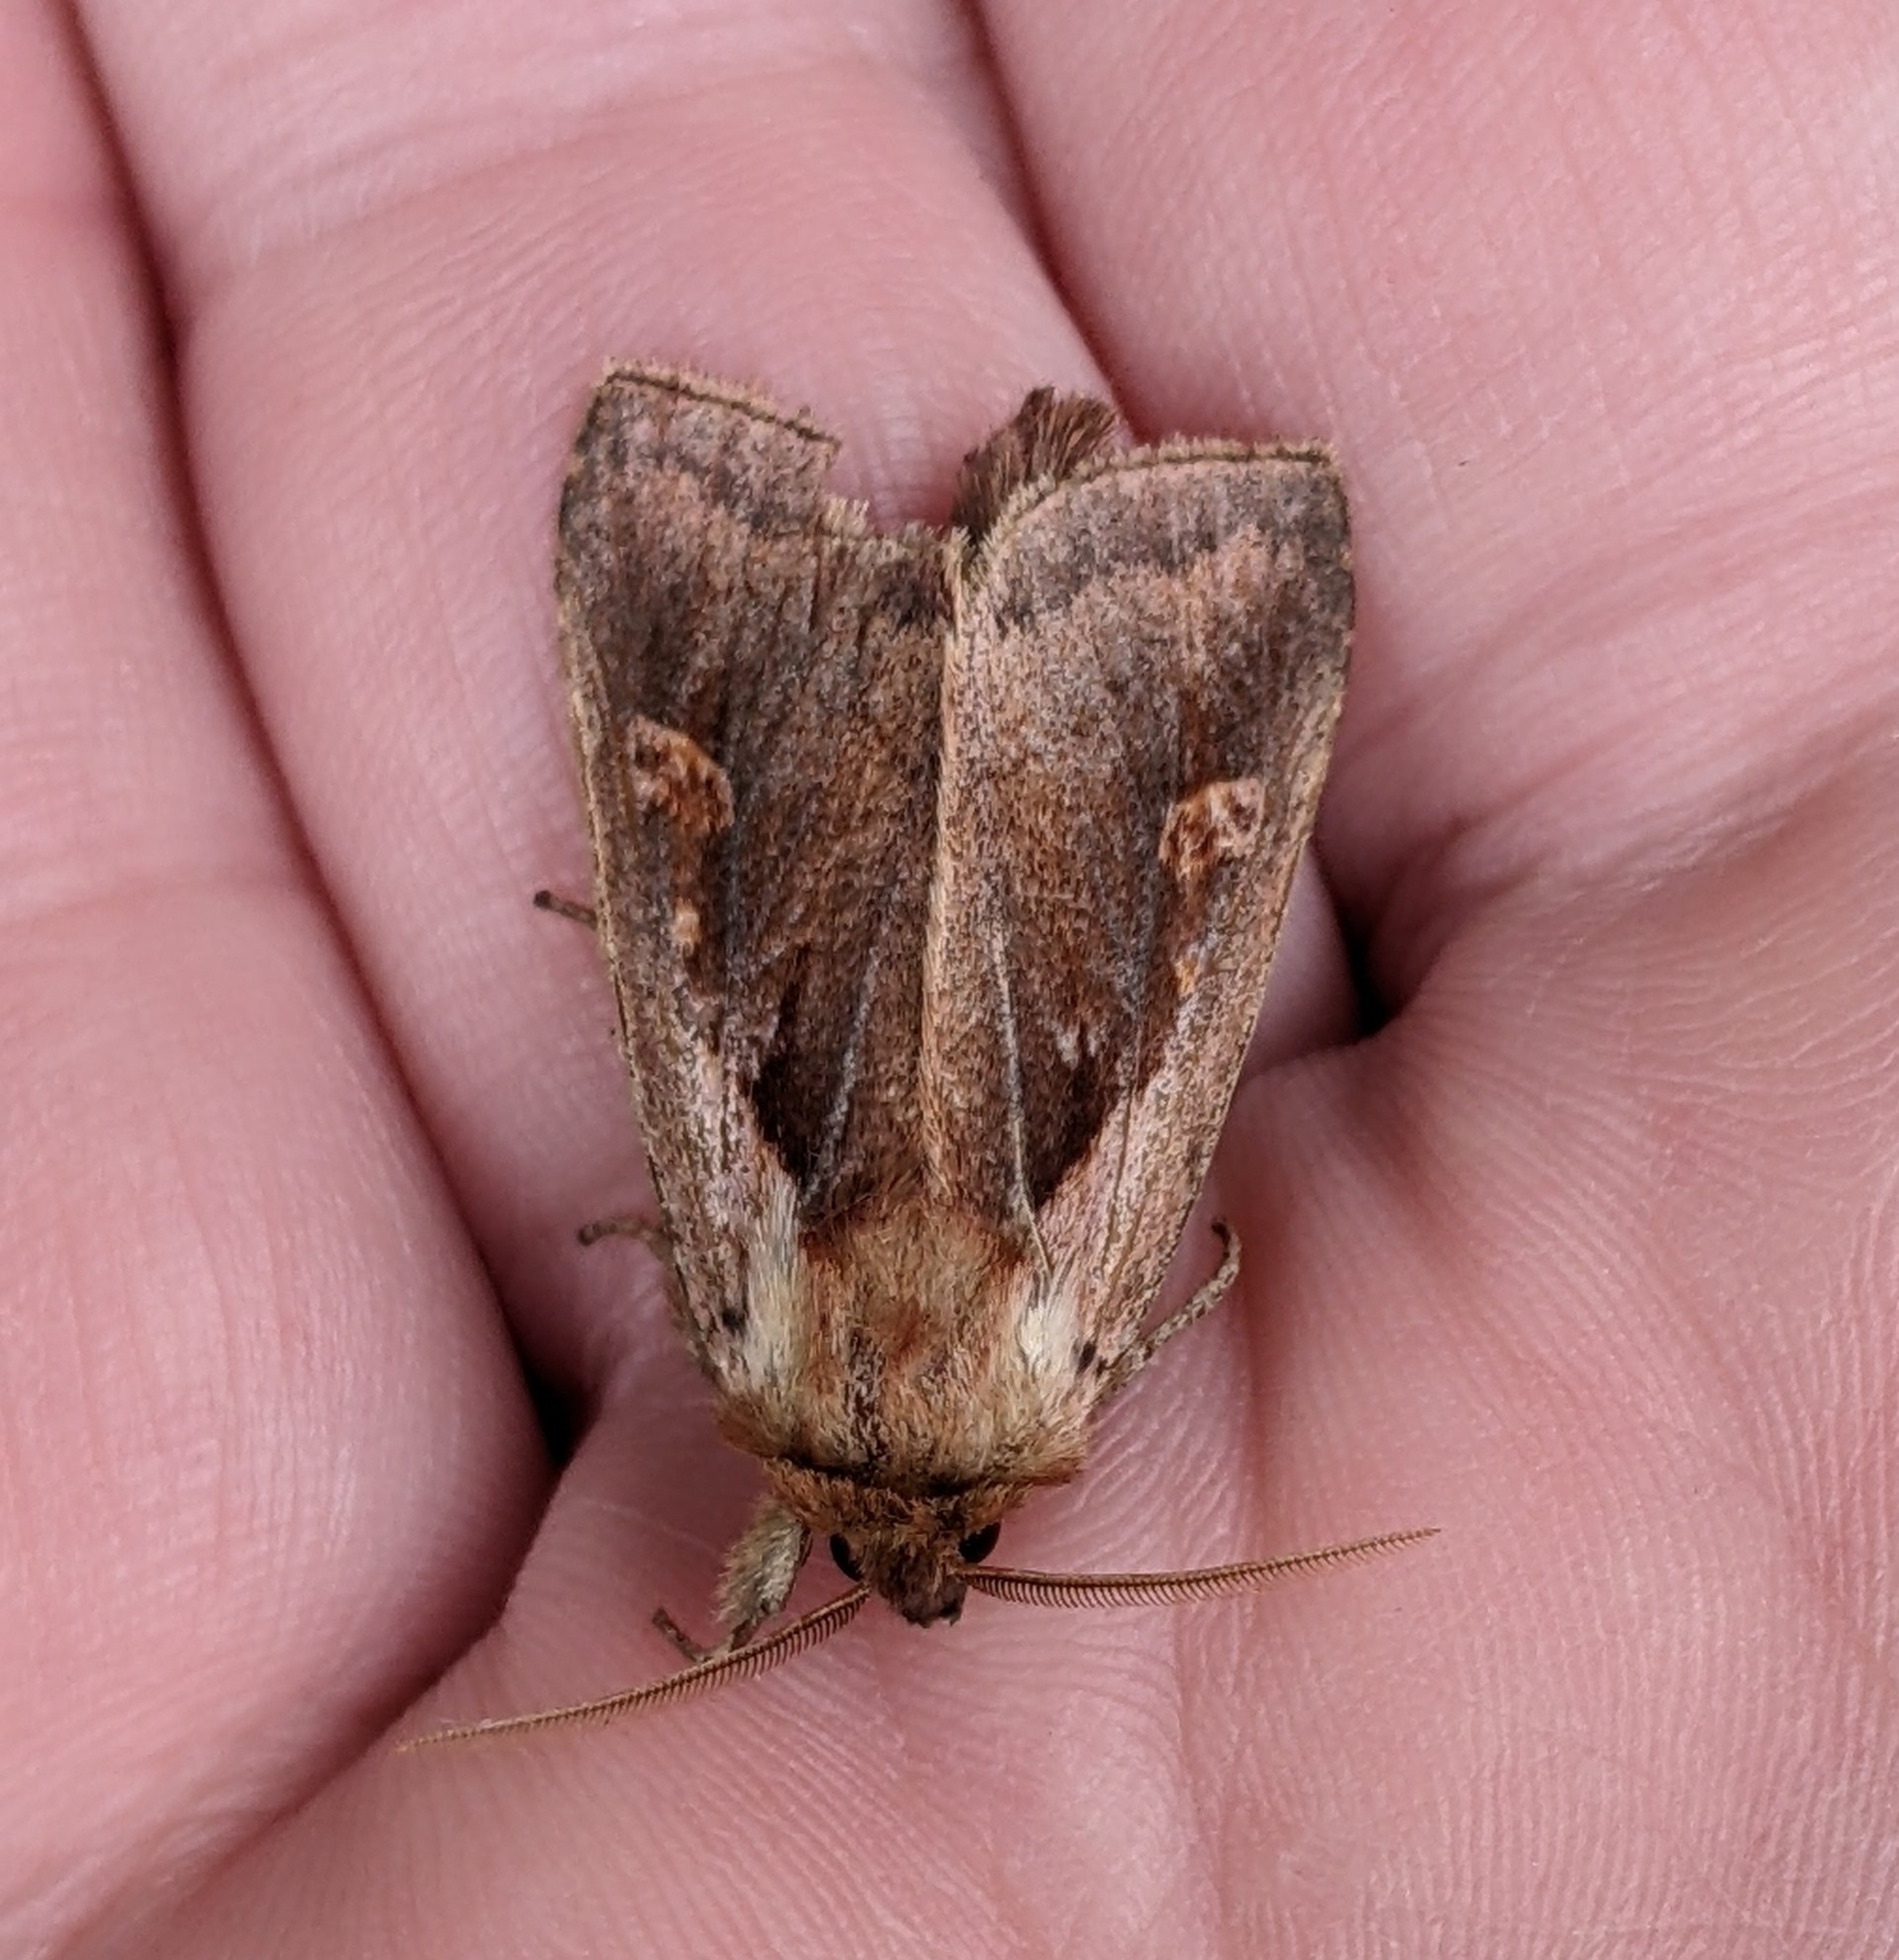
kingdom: Animalia
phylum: Arthropoda
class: Insecta
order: Lepidoptera
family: Noctuidae
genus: Bellura
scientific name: Bellura obliqua
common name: Cattail borer moth
